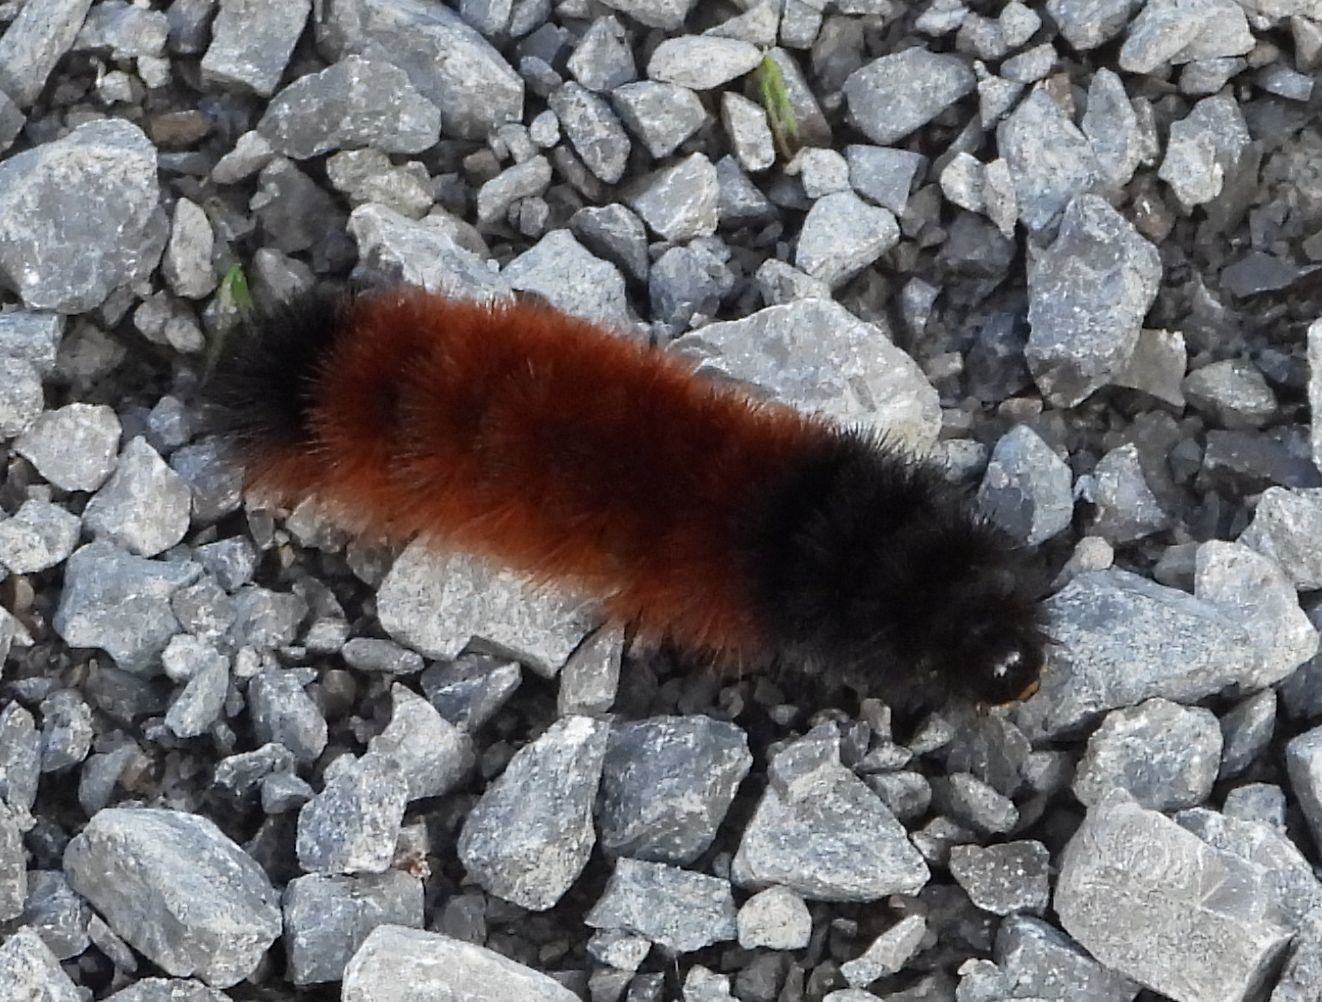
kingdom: Animalia
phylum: Arthropoda
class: Insecta
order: Lepidoptera
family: Erebidae
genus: Pyrrharctia
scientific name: Pyrrharctia isabella
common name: Isabella tiger moth
